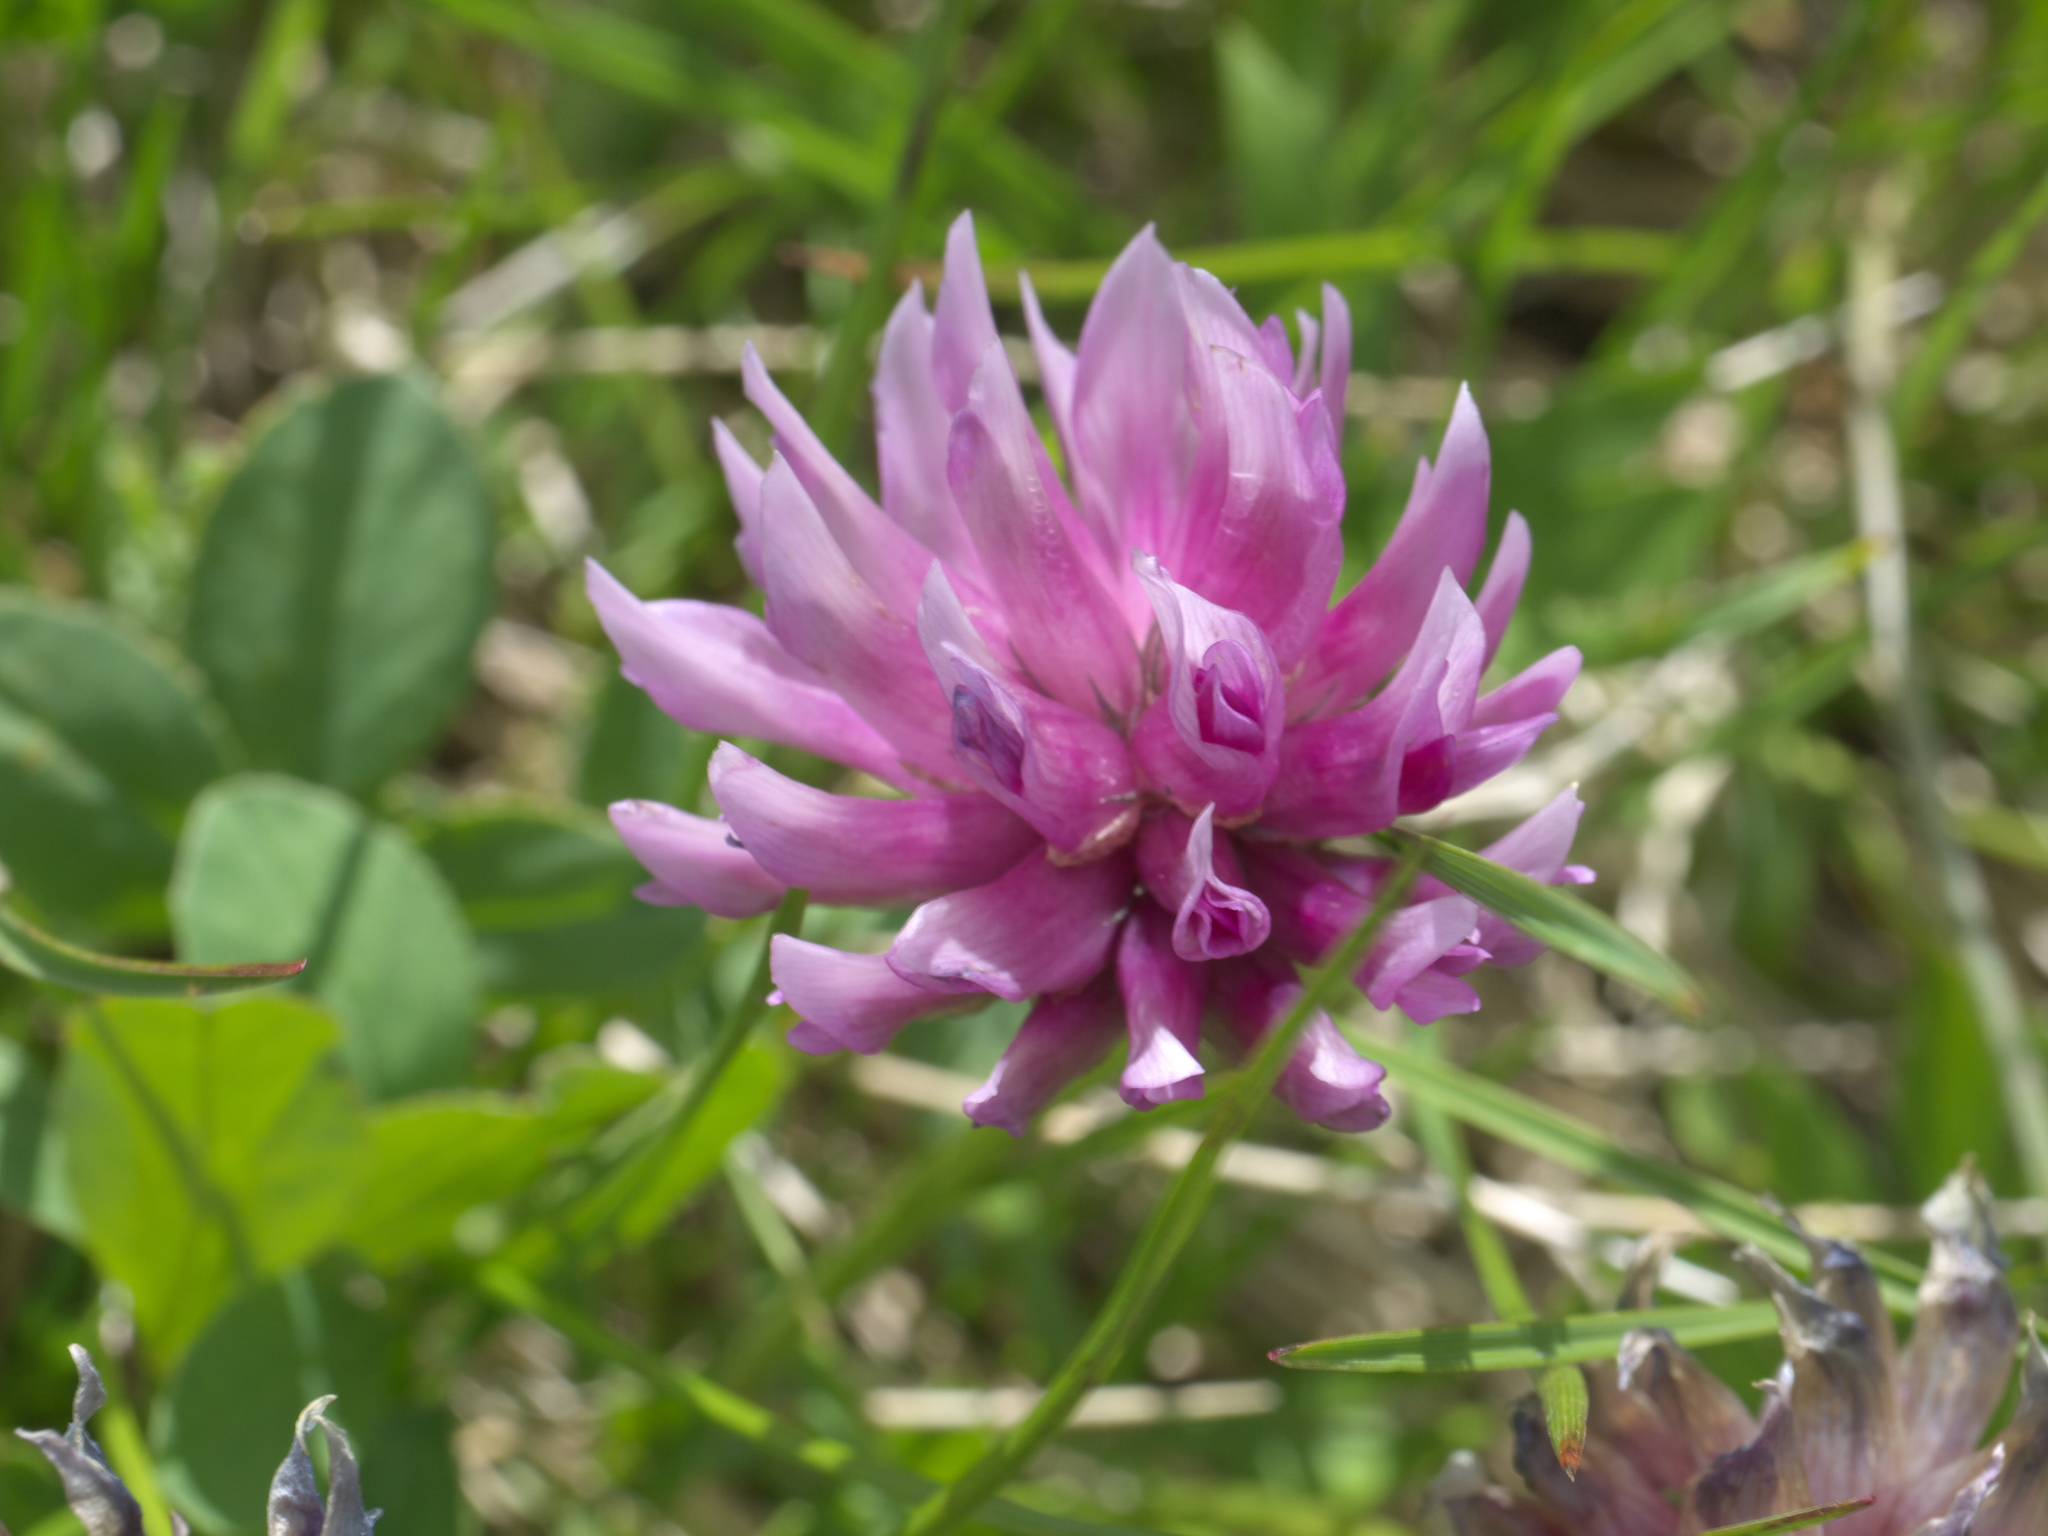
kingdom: Plantae
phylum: Tracheophyta
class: Magnoliopsida
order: Fabales
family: Fabaceae
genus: Trifolium
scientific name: Trifolium parryi
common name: Parry's clover
